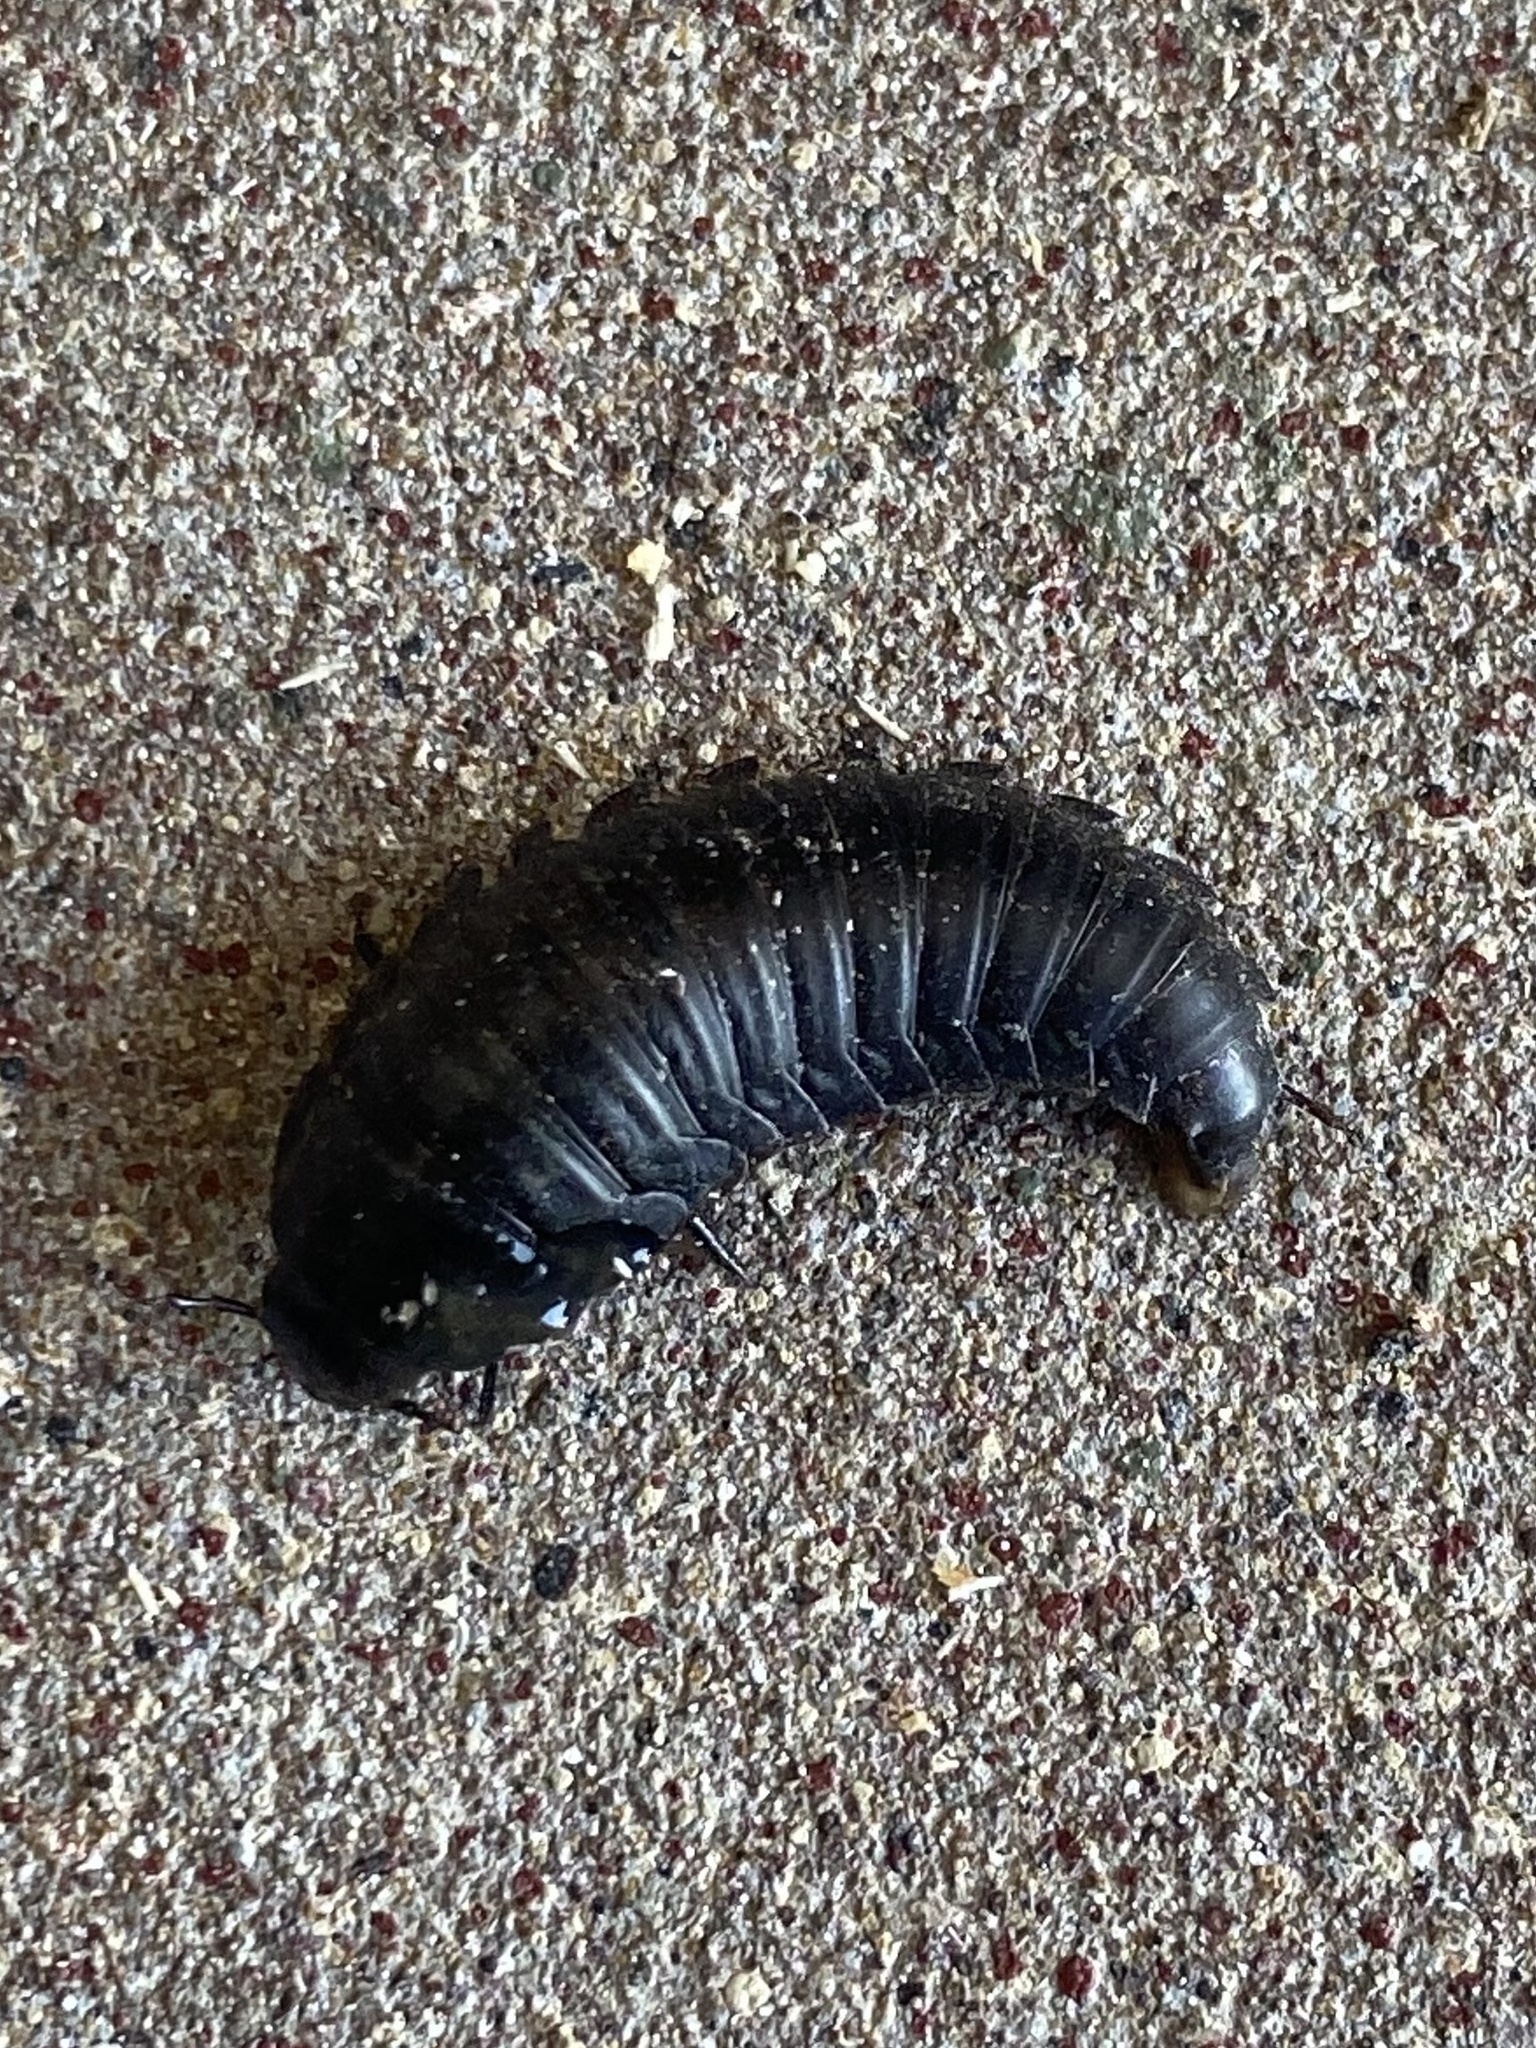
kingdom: Animalia
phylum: Arthropoda
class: Insecta
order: Coleoptera
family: Staphylinidae
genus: Necrophila
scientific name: Necrophila americana
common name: American carrion beetle
